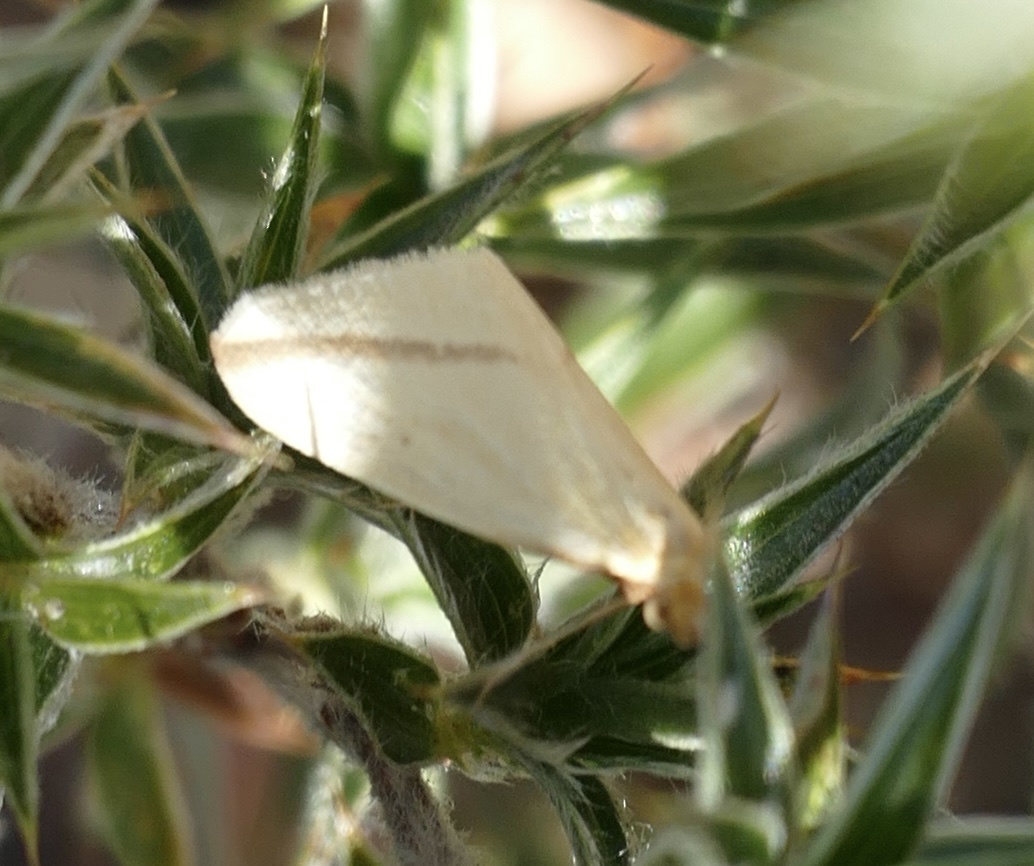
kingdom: Animalia
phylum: Arthropoda
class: Insecta
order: Lepidoptera
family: Geometridae
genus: Rhodometra
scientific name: Rhodometra sacraria
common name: Vestal
